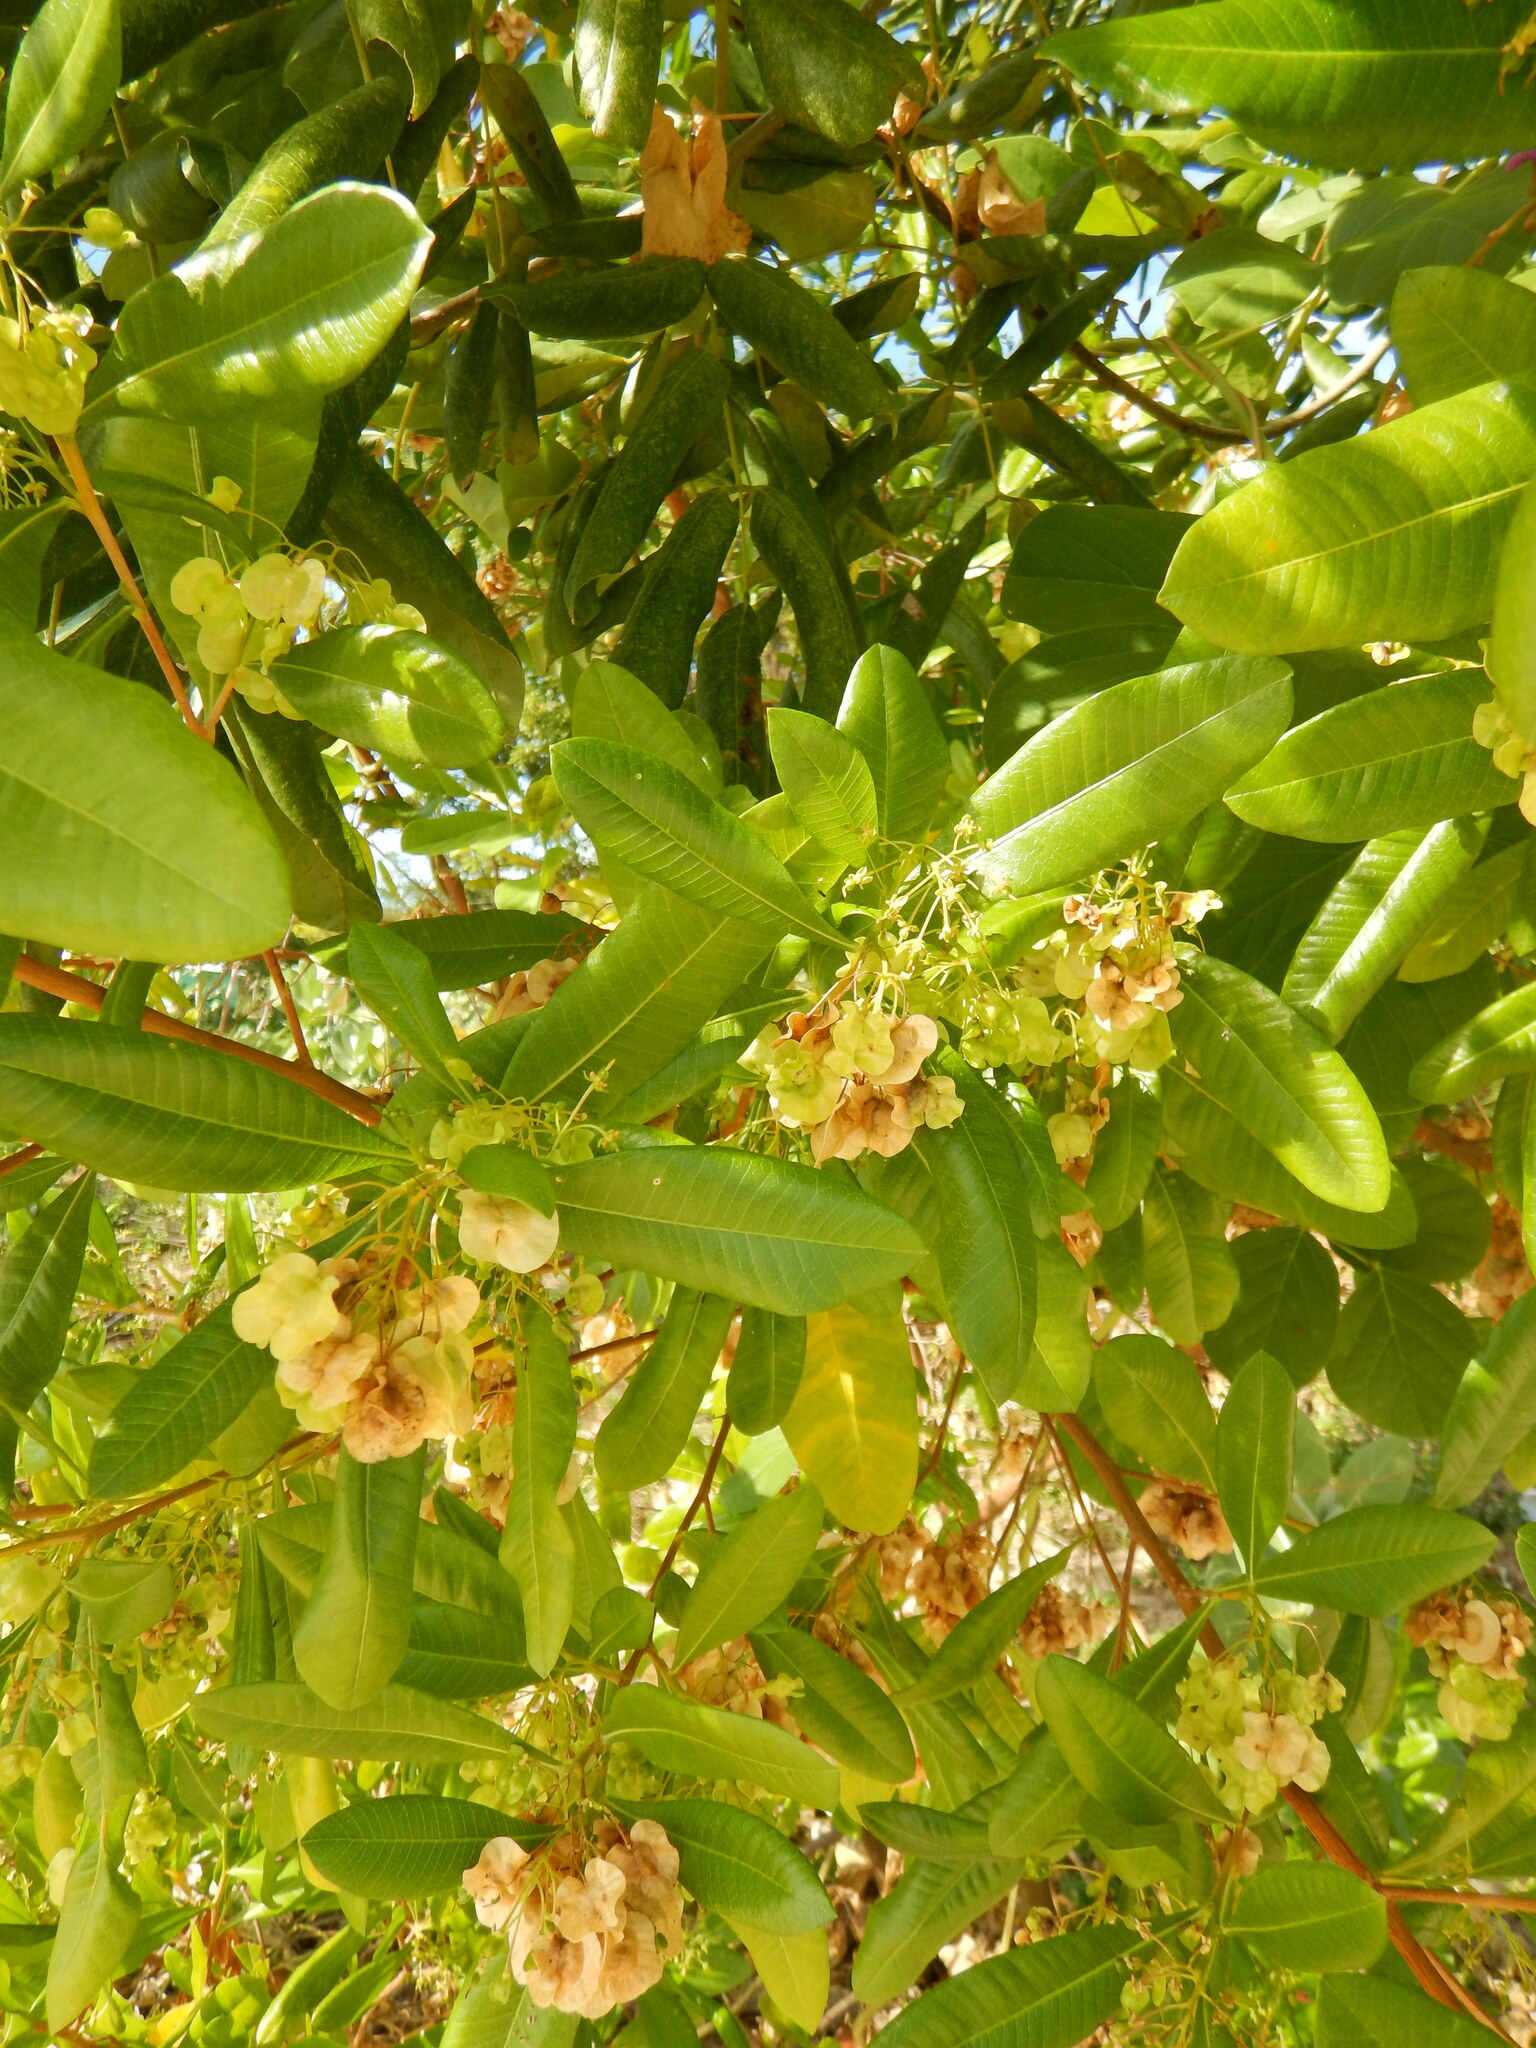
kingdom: Plantae
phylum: Tracheophyta
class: Magnoliopsida
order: Sapindales
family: Sapindaceae
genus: Dodonaea
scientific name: Dodonaea viscosa
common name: Hopbush
